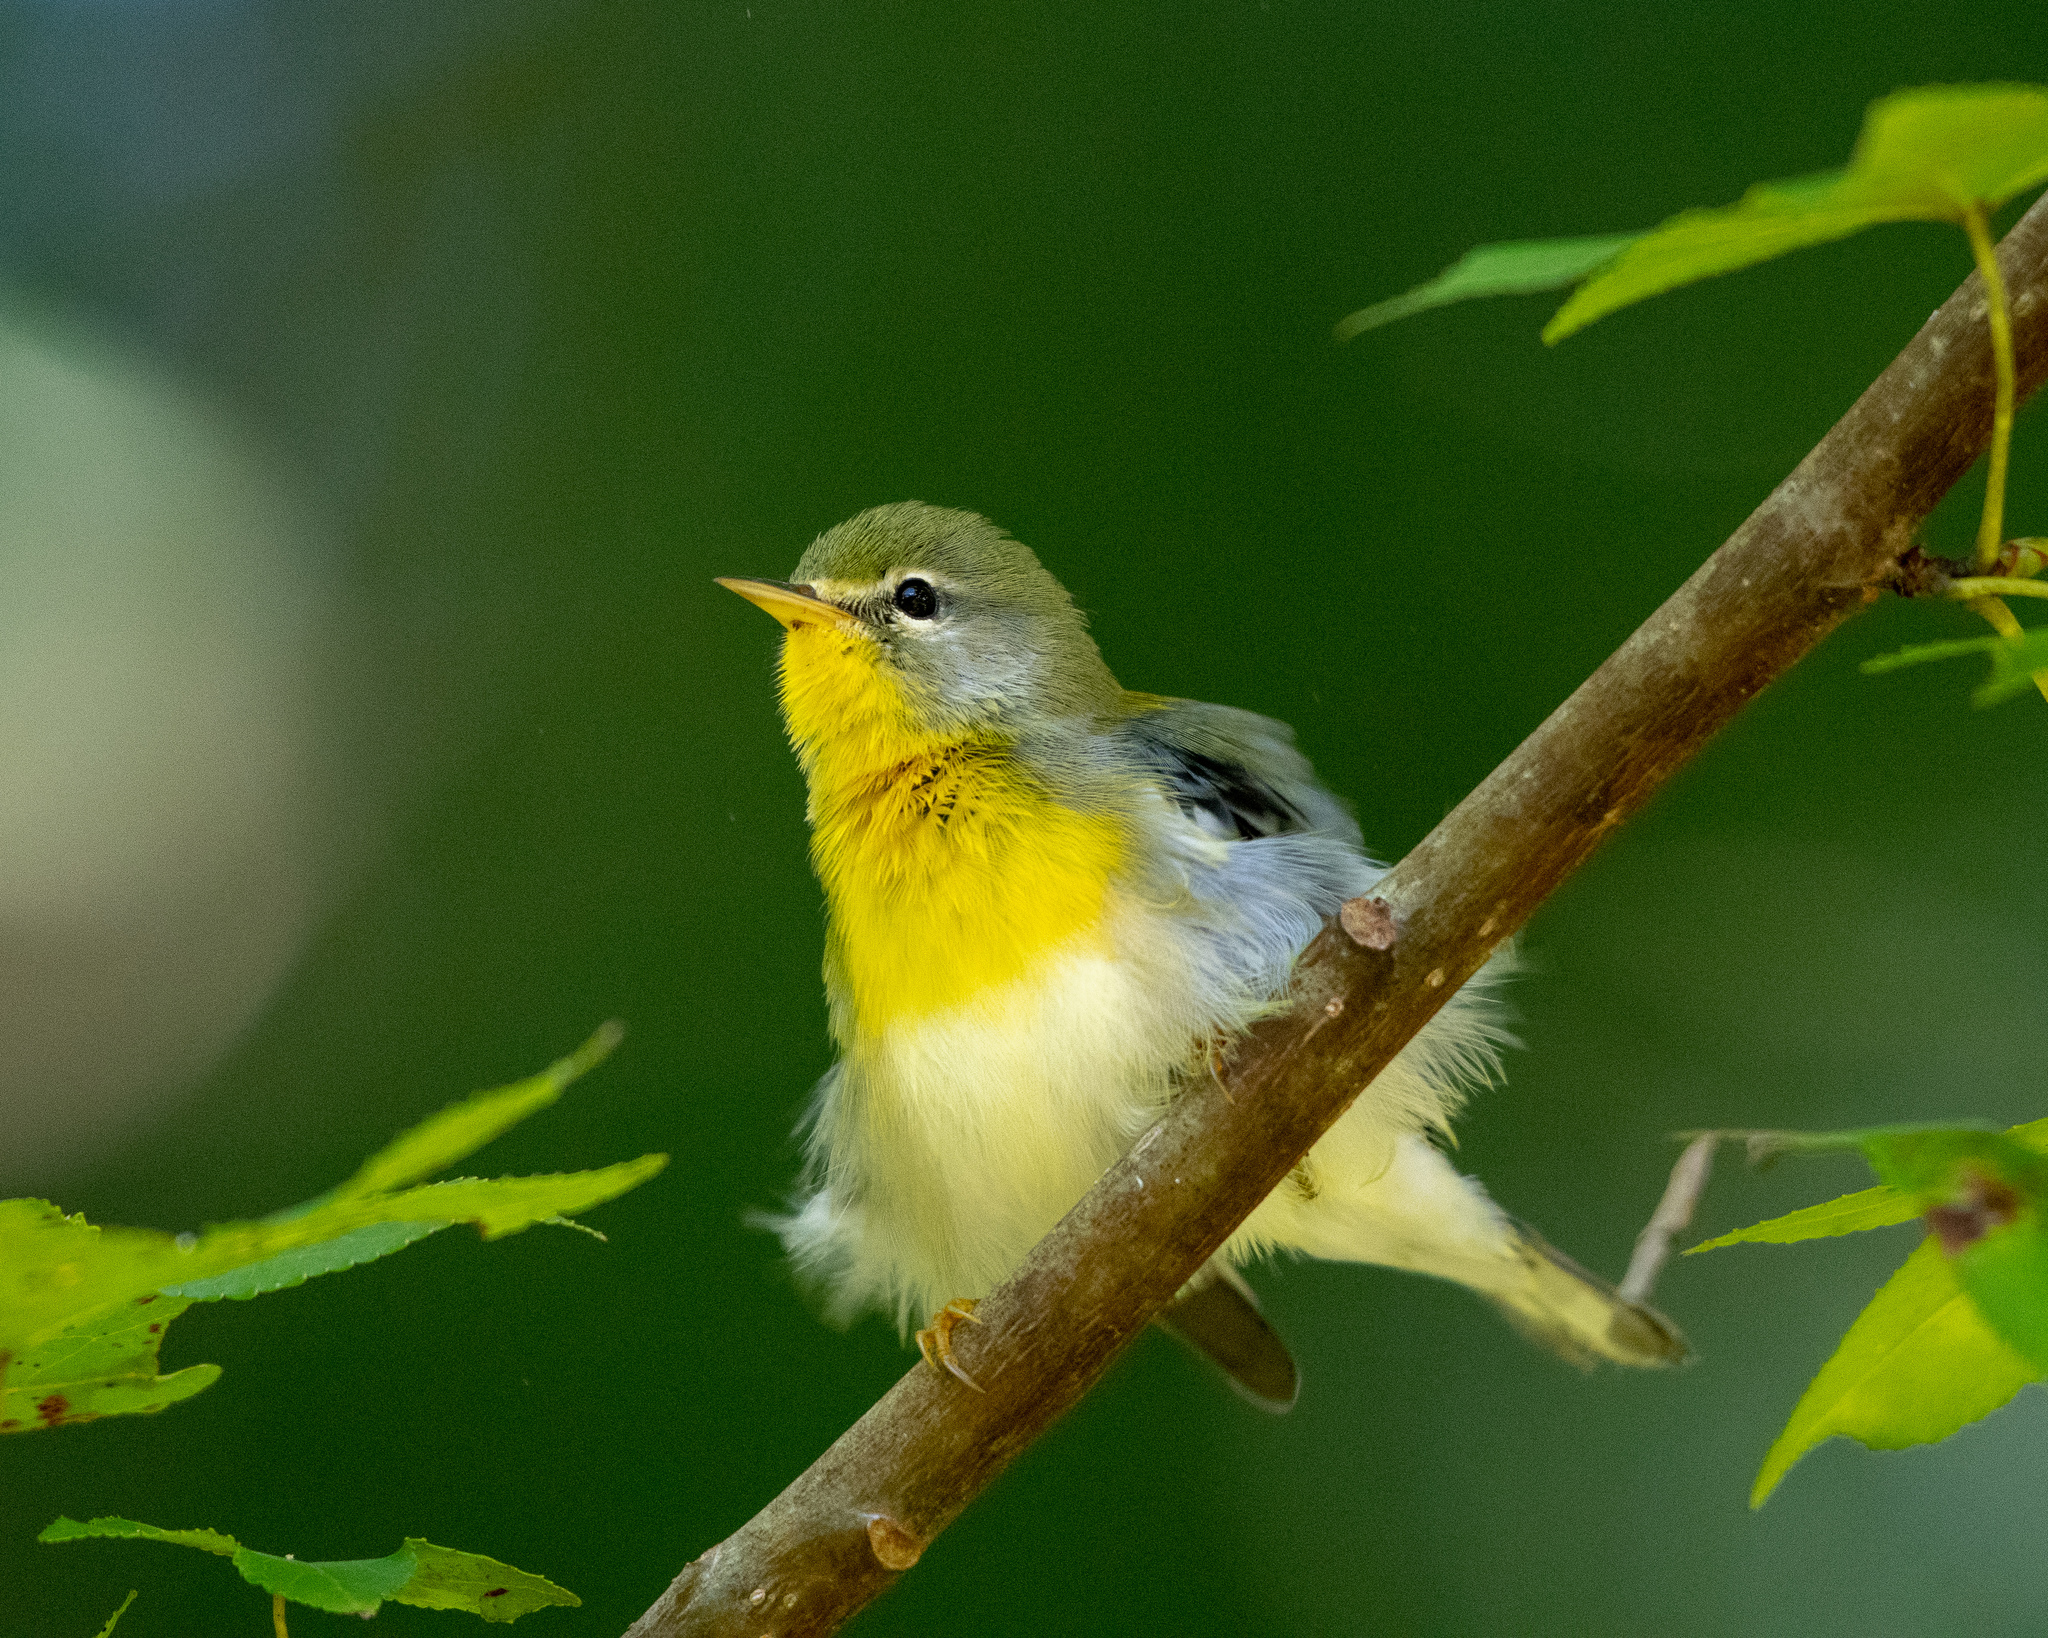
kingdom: Animalia
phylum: Chordata
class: Aves
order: Passeriformes
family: Parulidae
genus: Setophaga
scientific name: Setophaga americana
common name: Northern parula
